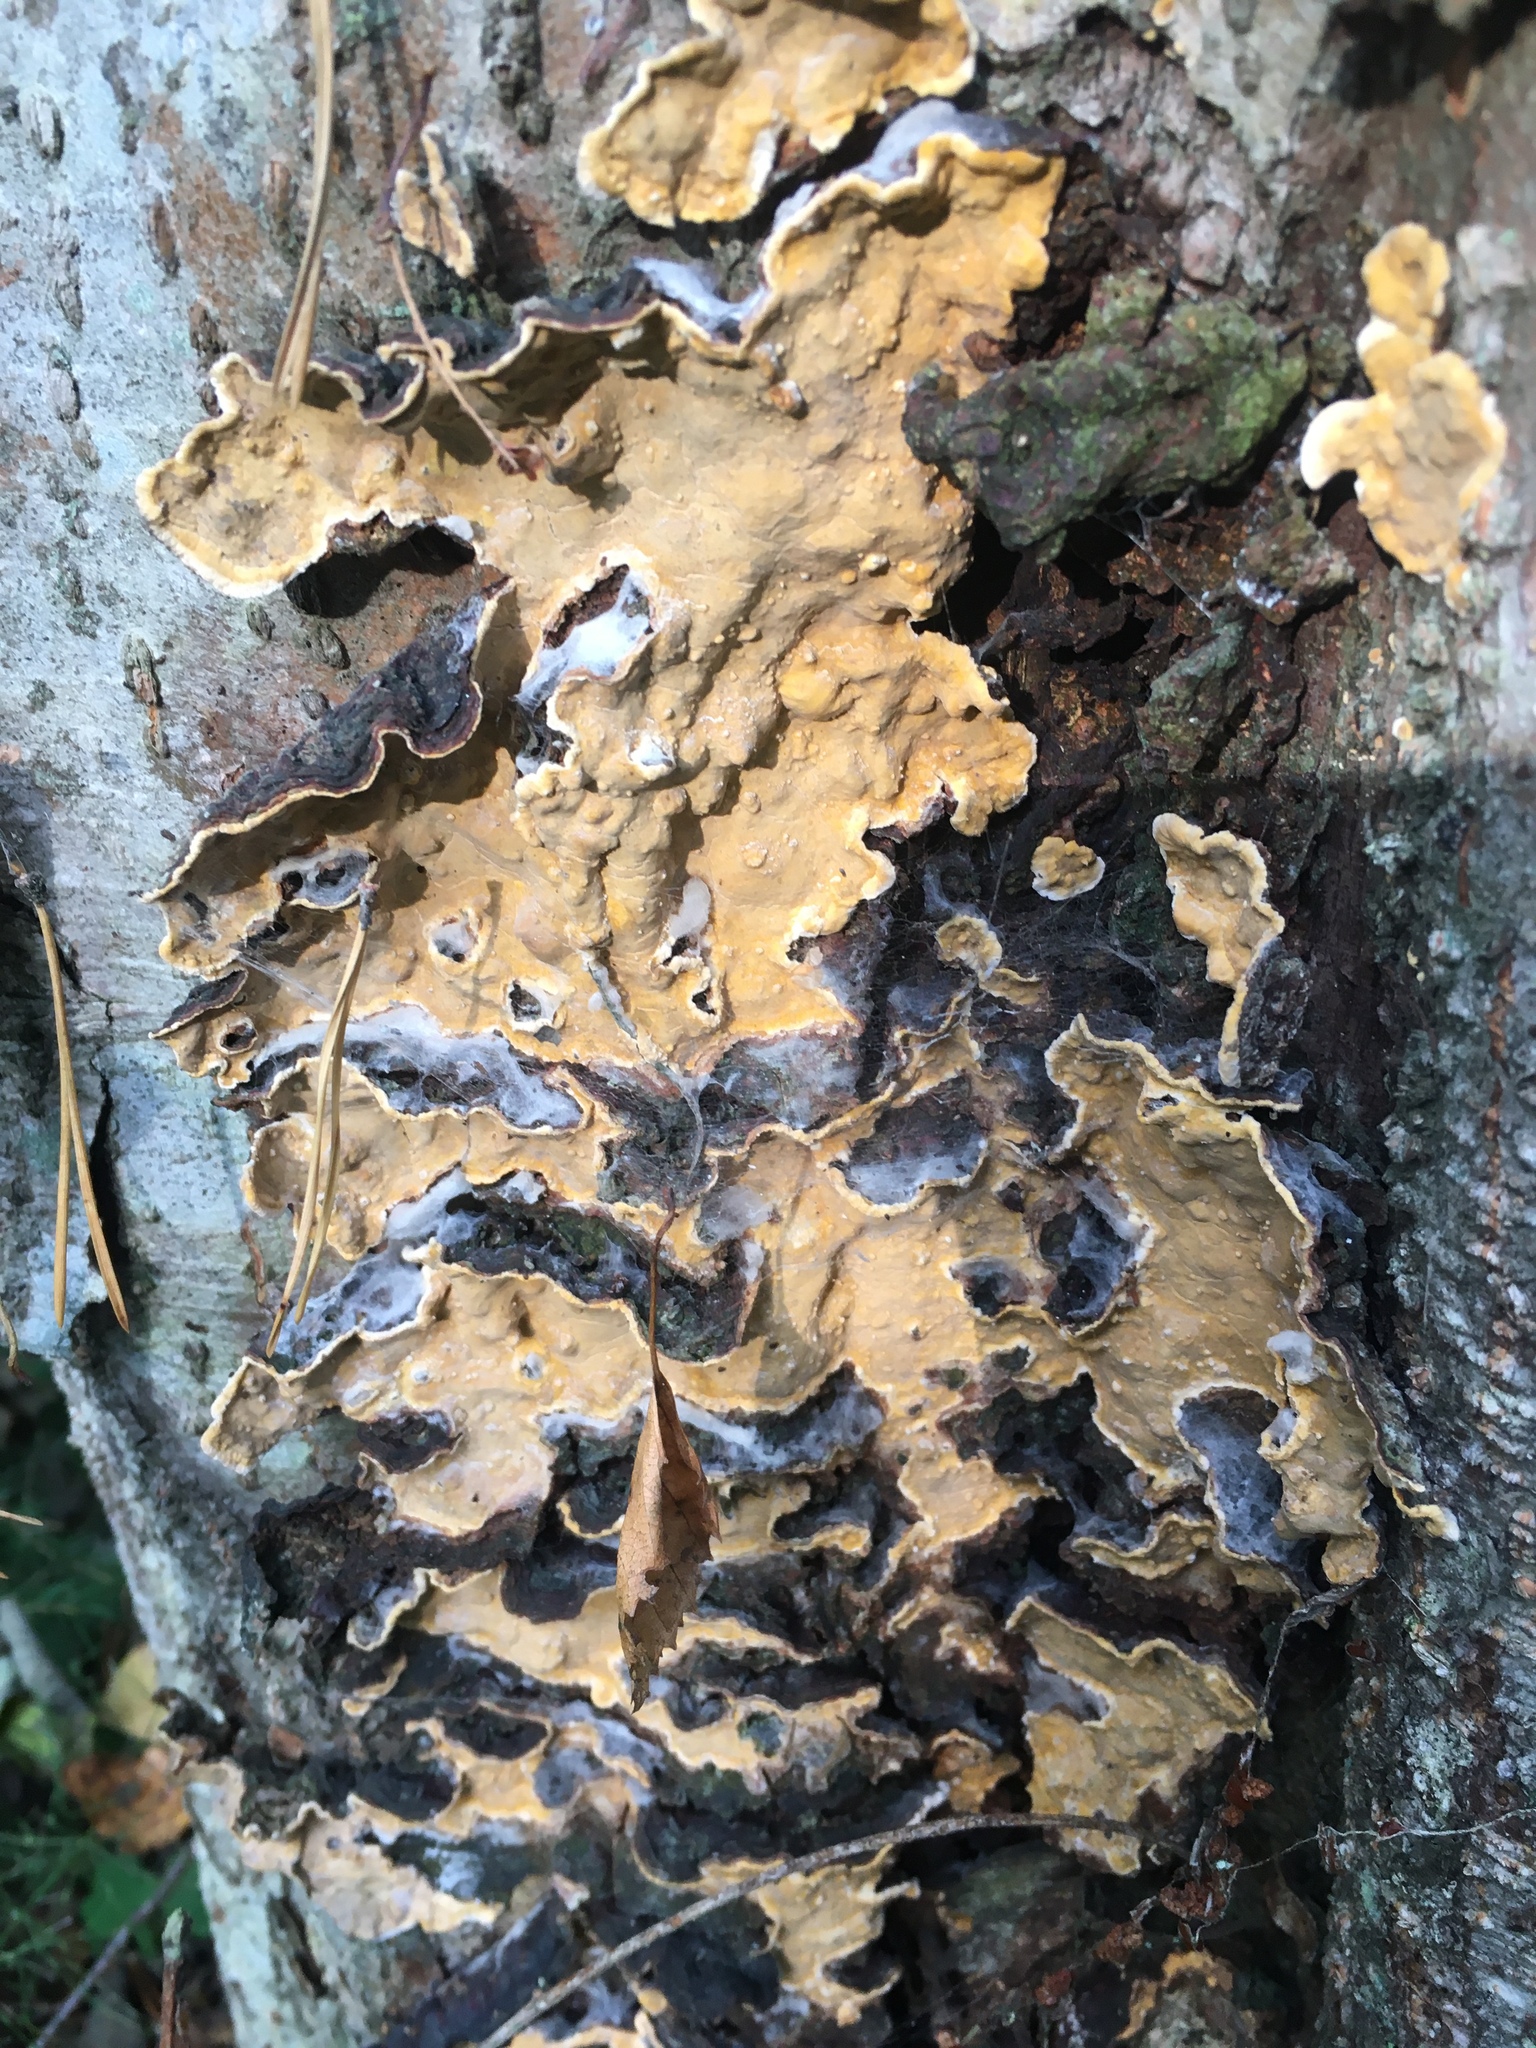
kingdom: Fungi
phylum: Basidiomycota
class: Agaricomycetes
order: Russulales
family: Stereaceae
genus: Stereum
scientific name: Stereum rugosum
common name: Bleeding broadleaf crust
